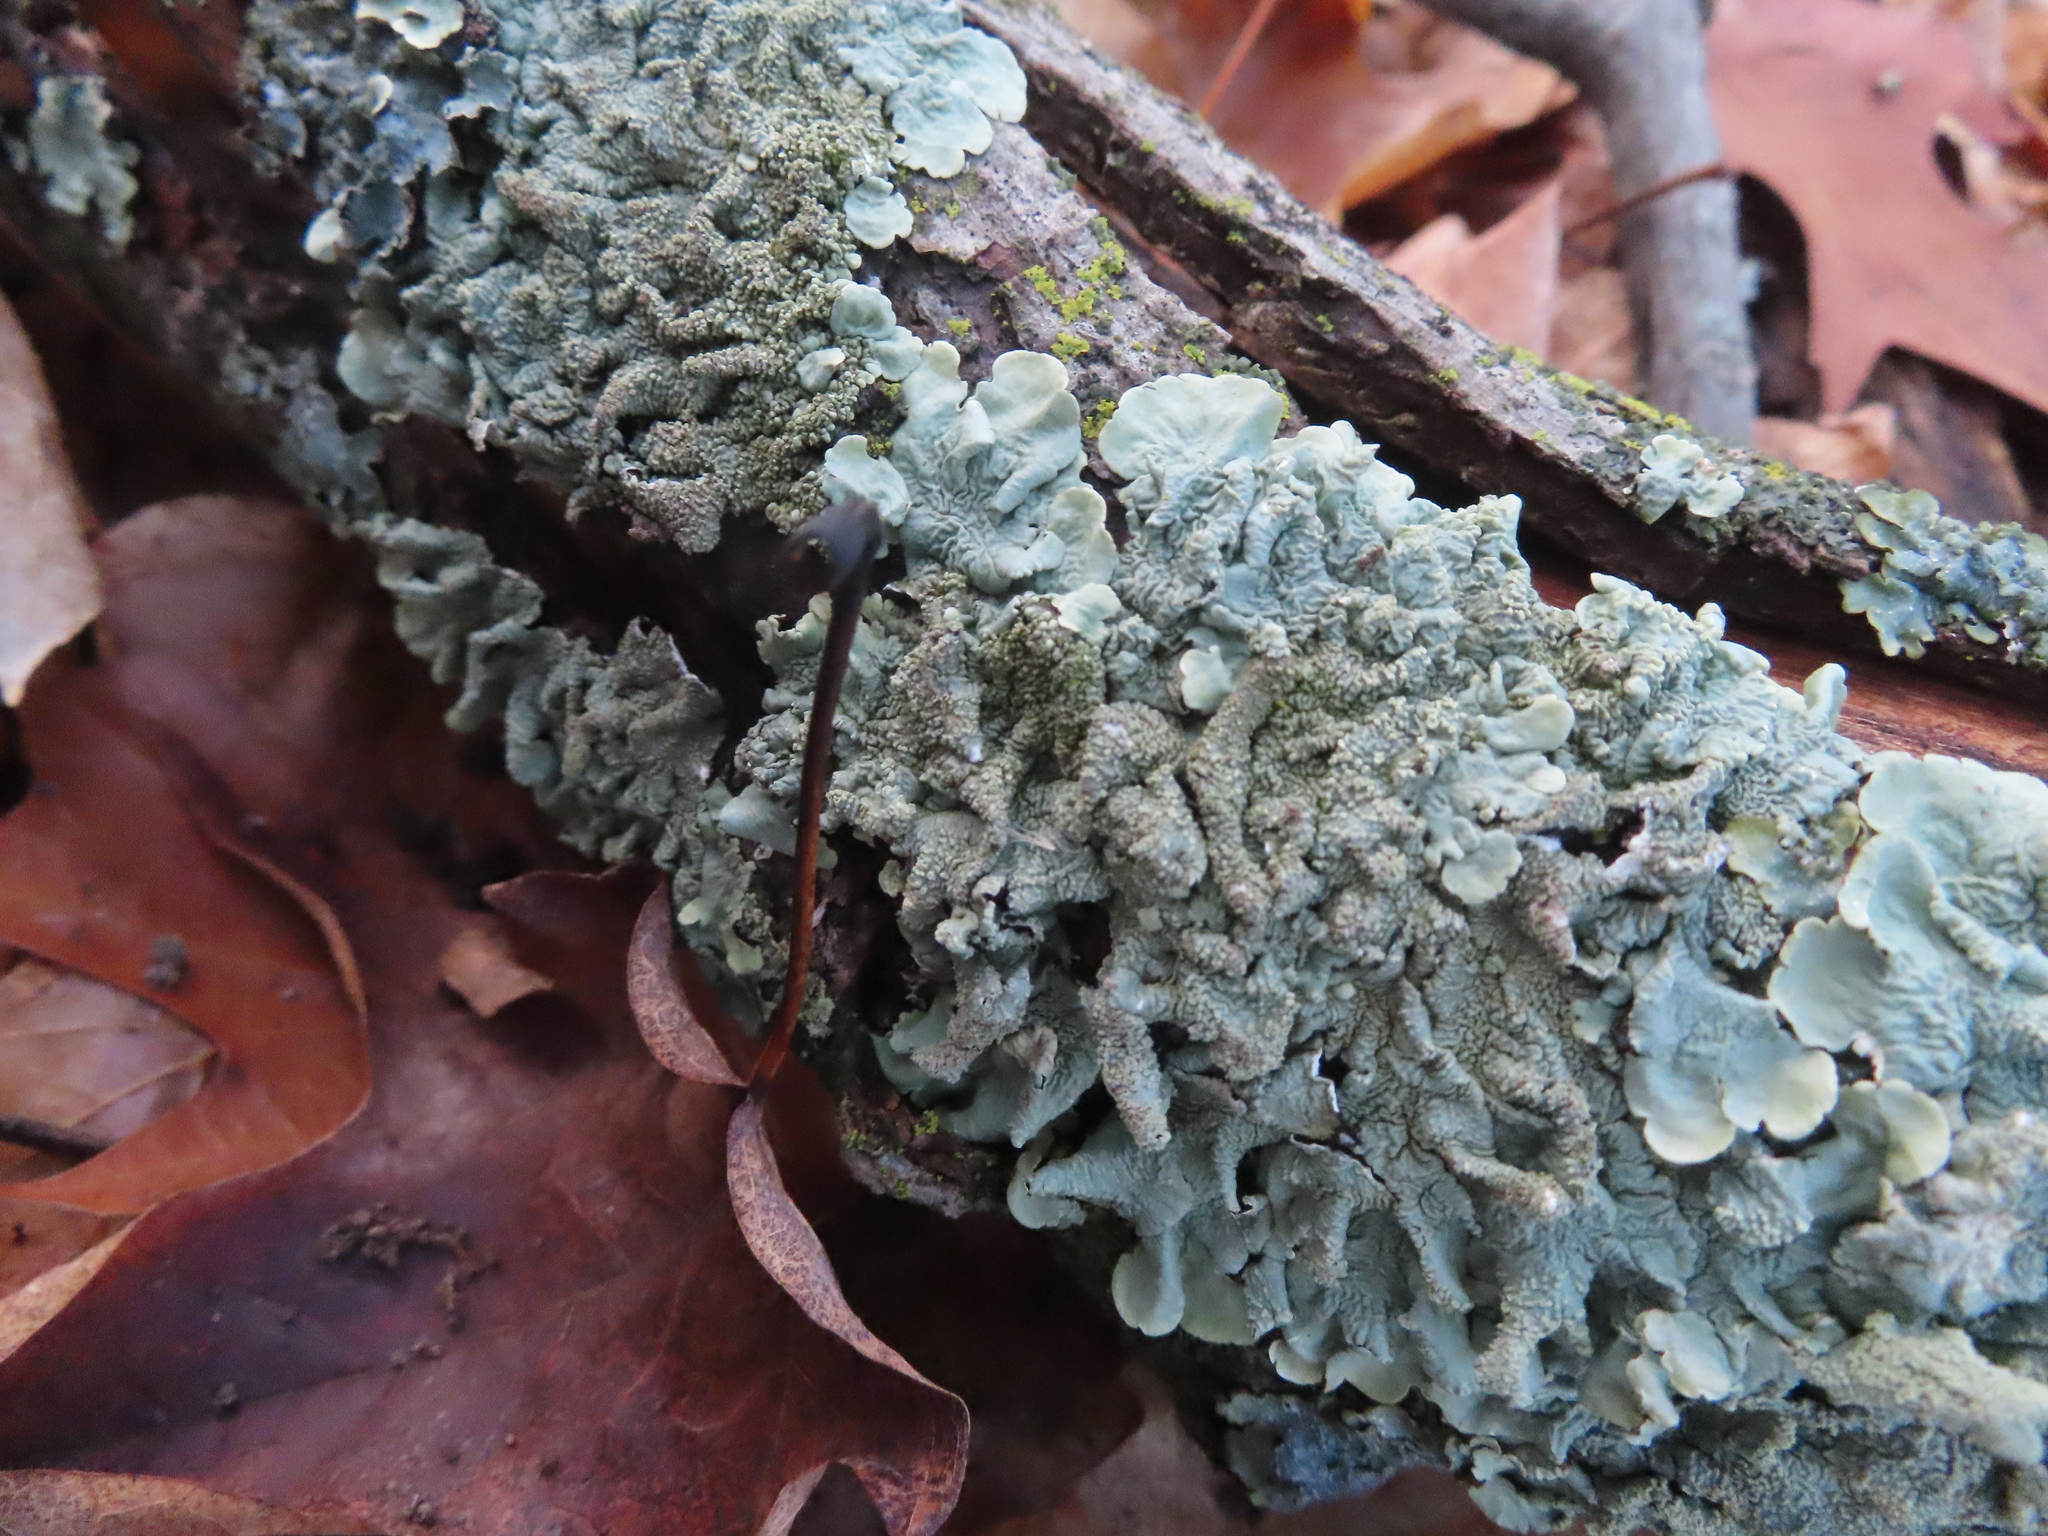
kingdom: Fungi
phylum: Ascomycota
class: Lecanoromycetes
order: Lecanorales
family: Parmeliaceae
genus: Flavoparmelia
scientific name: Flavoparmelia caperata
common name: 40-mile per hour lichen
